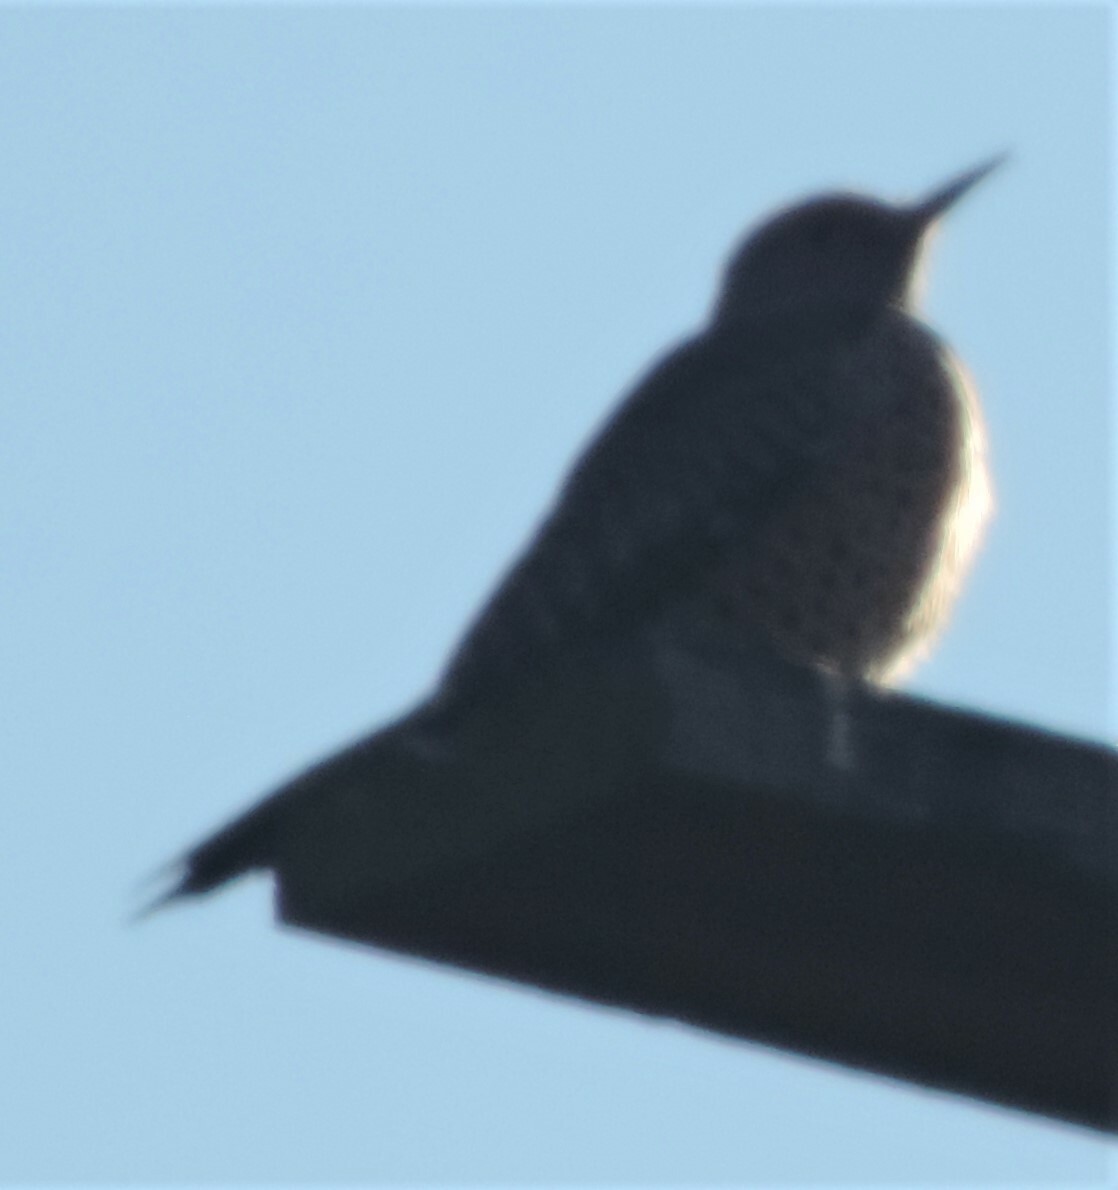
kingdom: Animalia
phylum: Chordata
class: Aves
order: Piciformes
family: Picidae
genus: Colaptes
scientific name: Colaptes auratus
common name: Northern flicker
